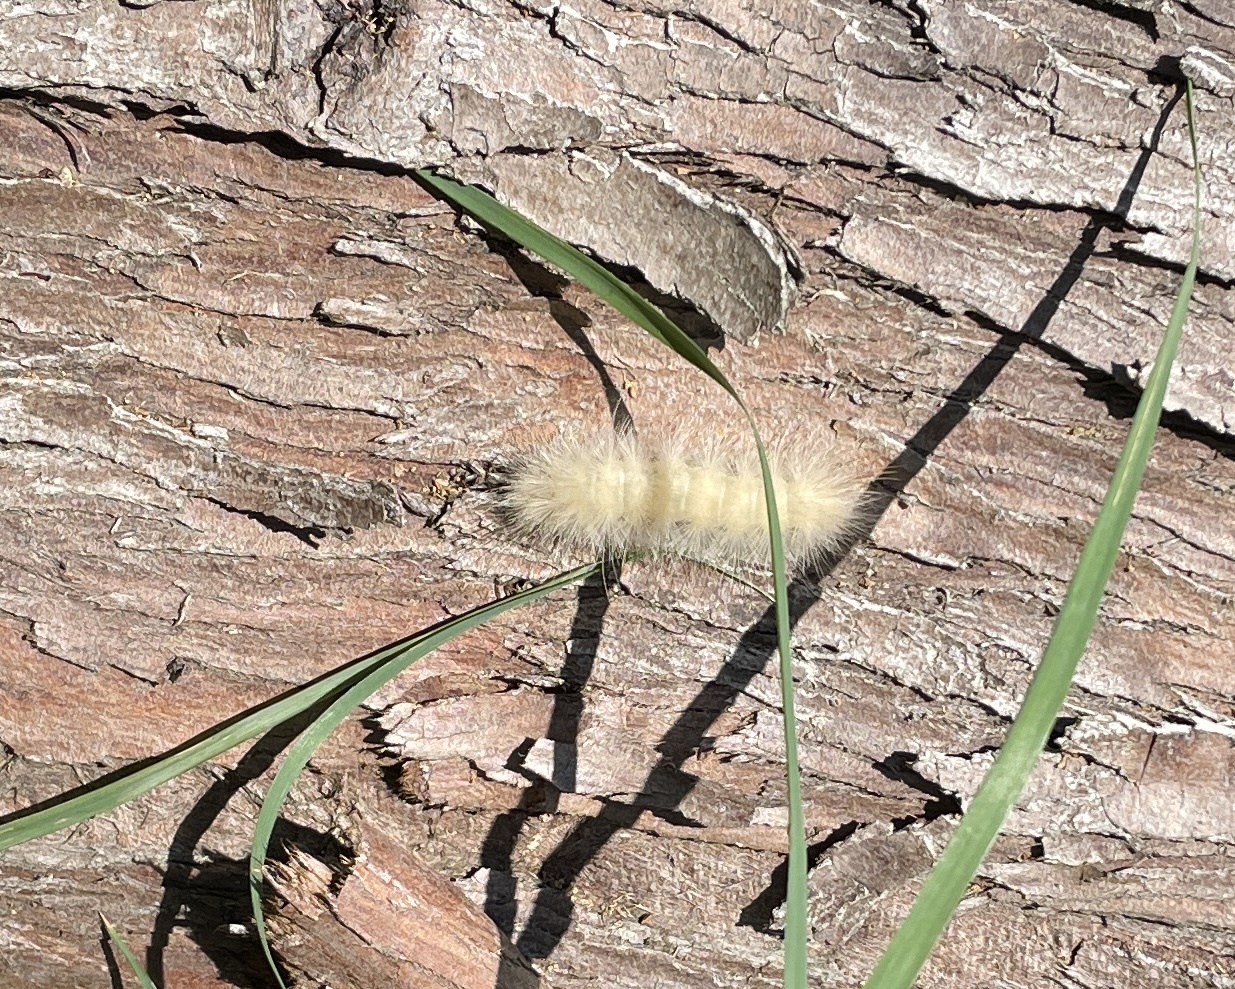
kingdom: Animalia
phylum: Arthropoda
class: Insecta
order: Lepidoptera
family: Erebidae
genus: Spilosoma
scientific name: Spilosoma virginica
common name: Virginia tiger moth
